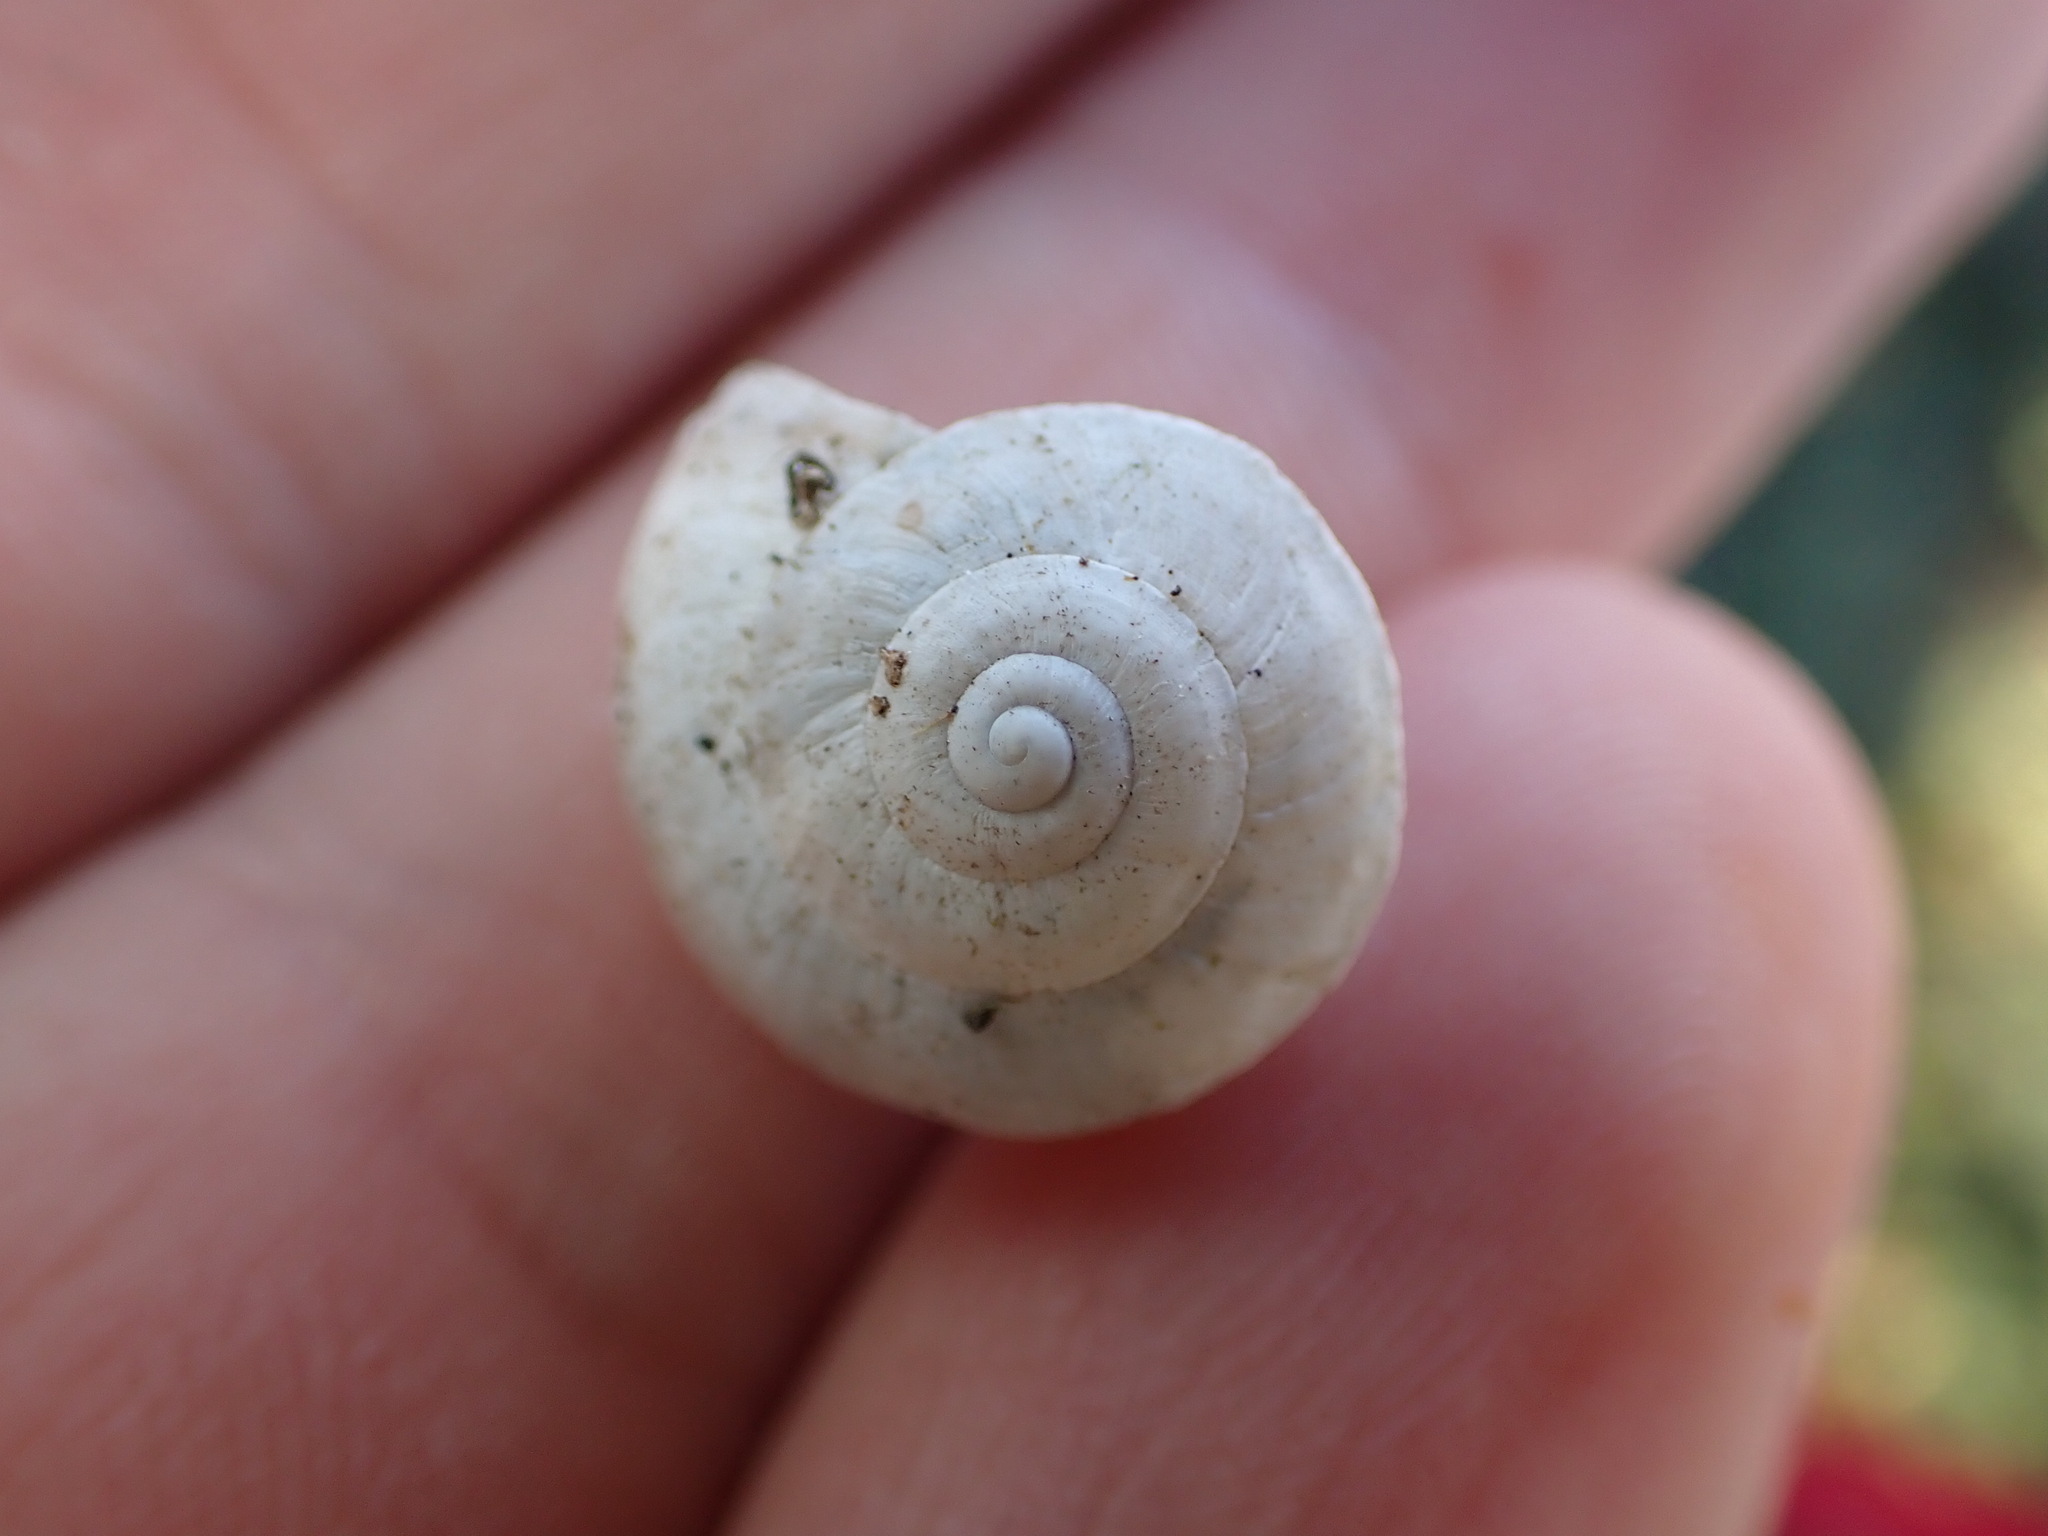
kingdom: Animalia
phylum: Mollusca
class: Gastropoda
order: Stylommatophora
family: Helicidae
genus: Theba
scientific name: Theba pisana
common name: White snail
